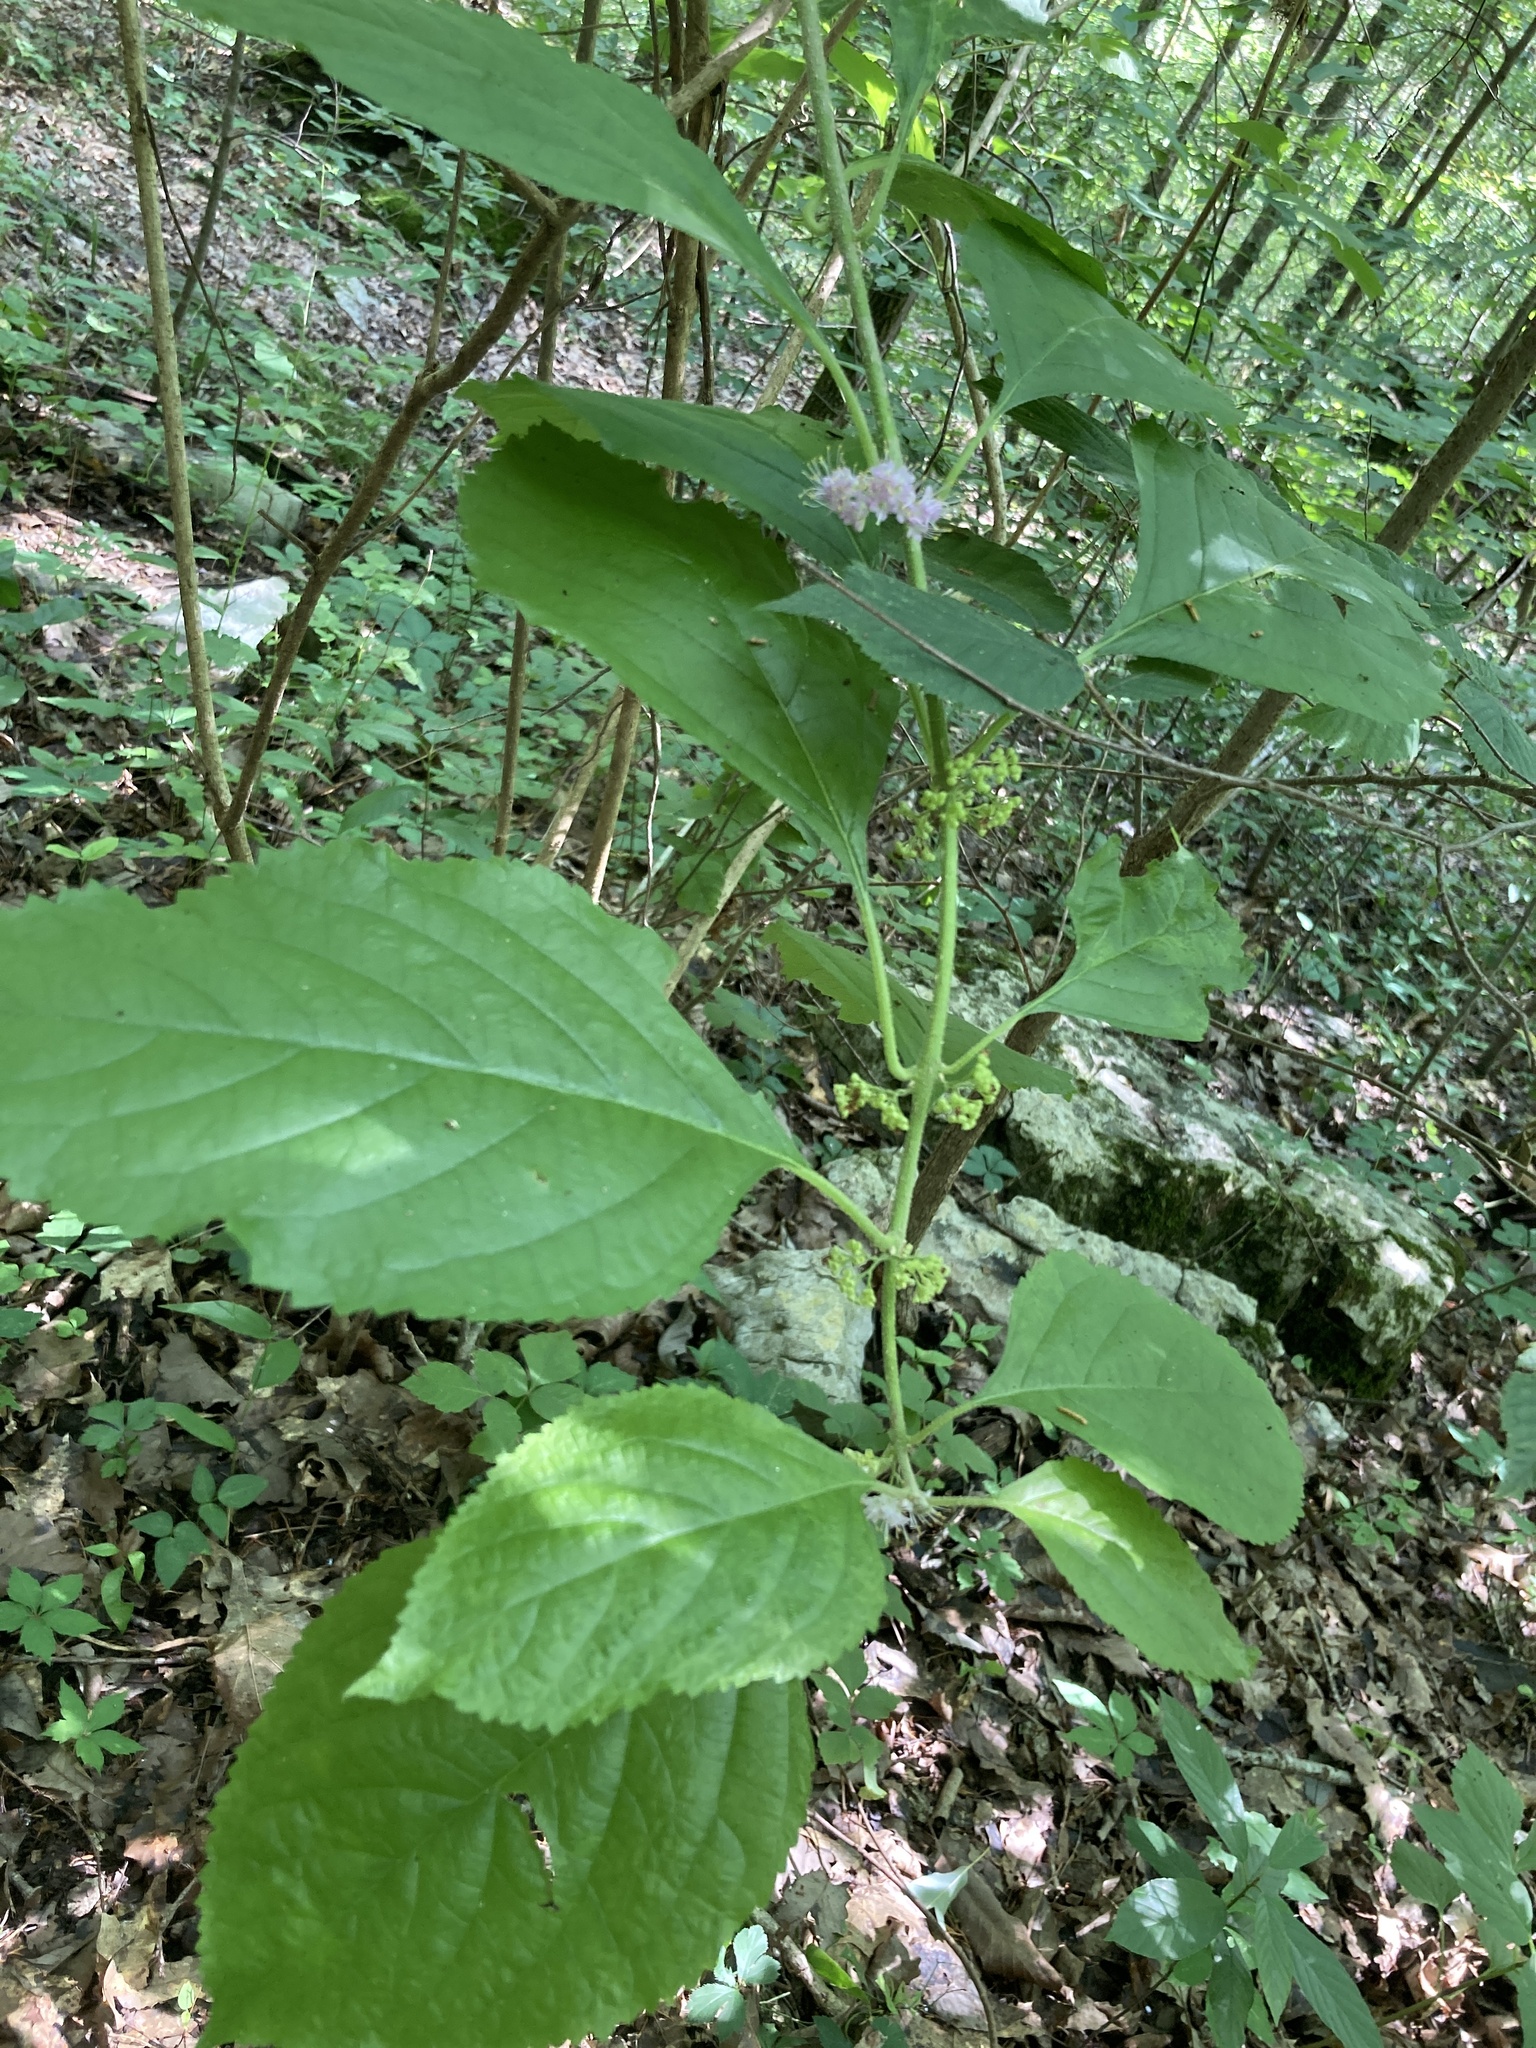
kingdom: Plantae
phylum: Tracheophyta
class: Magnoliopsida
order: Lamiales
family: Lamiaceae
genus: Callicarpa
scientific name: Callicarpa americana
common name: American beautyberry
